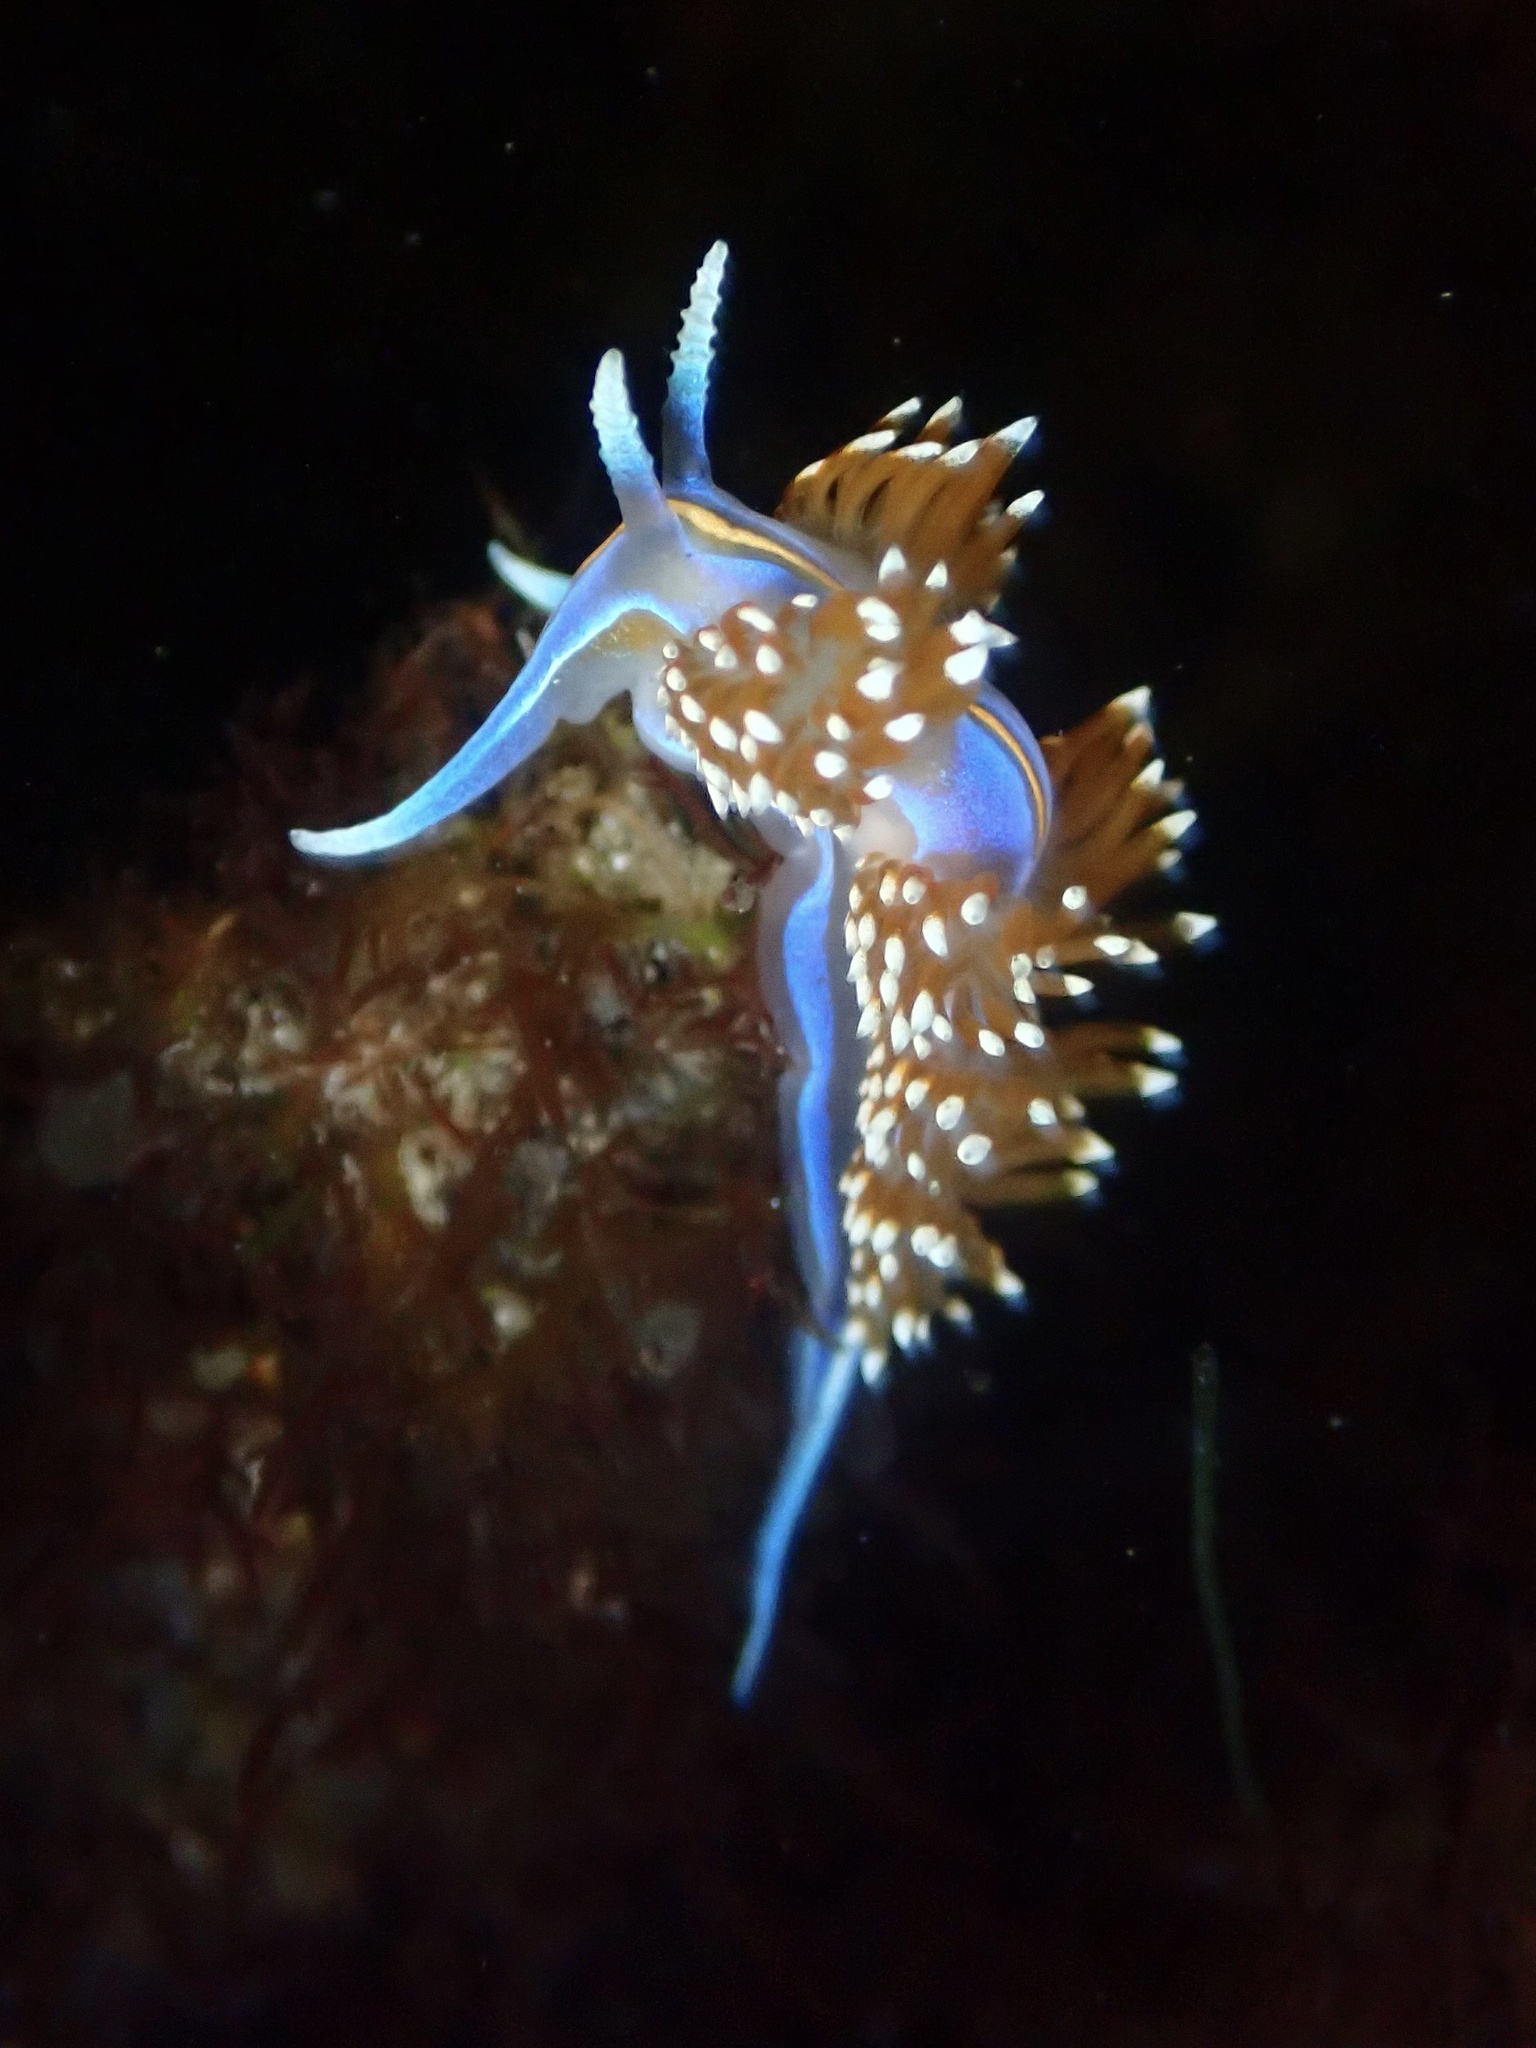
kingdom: Animalia
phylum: Mollusca
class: Gastropoda
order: Nudibranchia
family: Myrrhinidae
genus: Hermissenda
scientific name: Hermissenda opalescens
